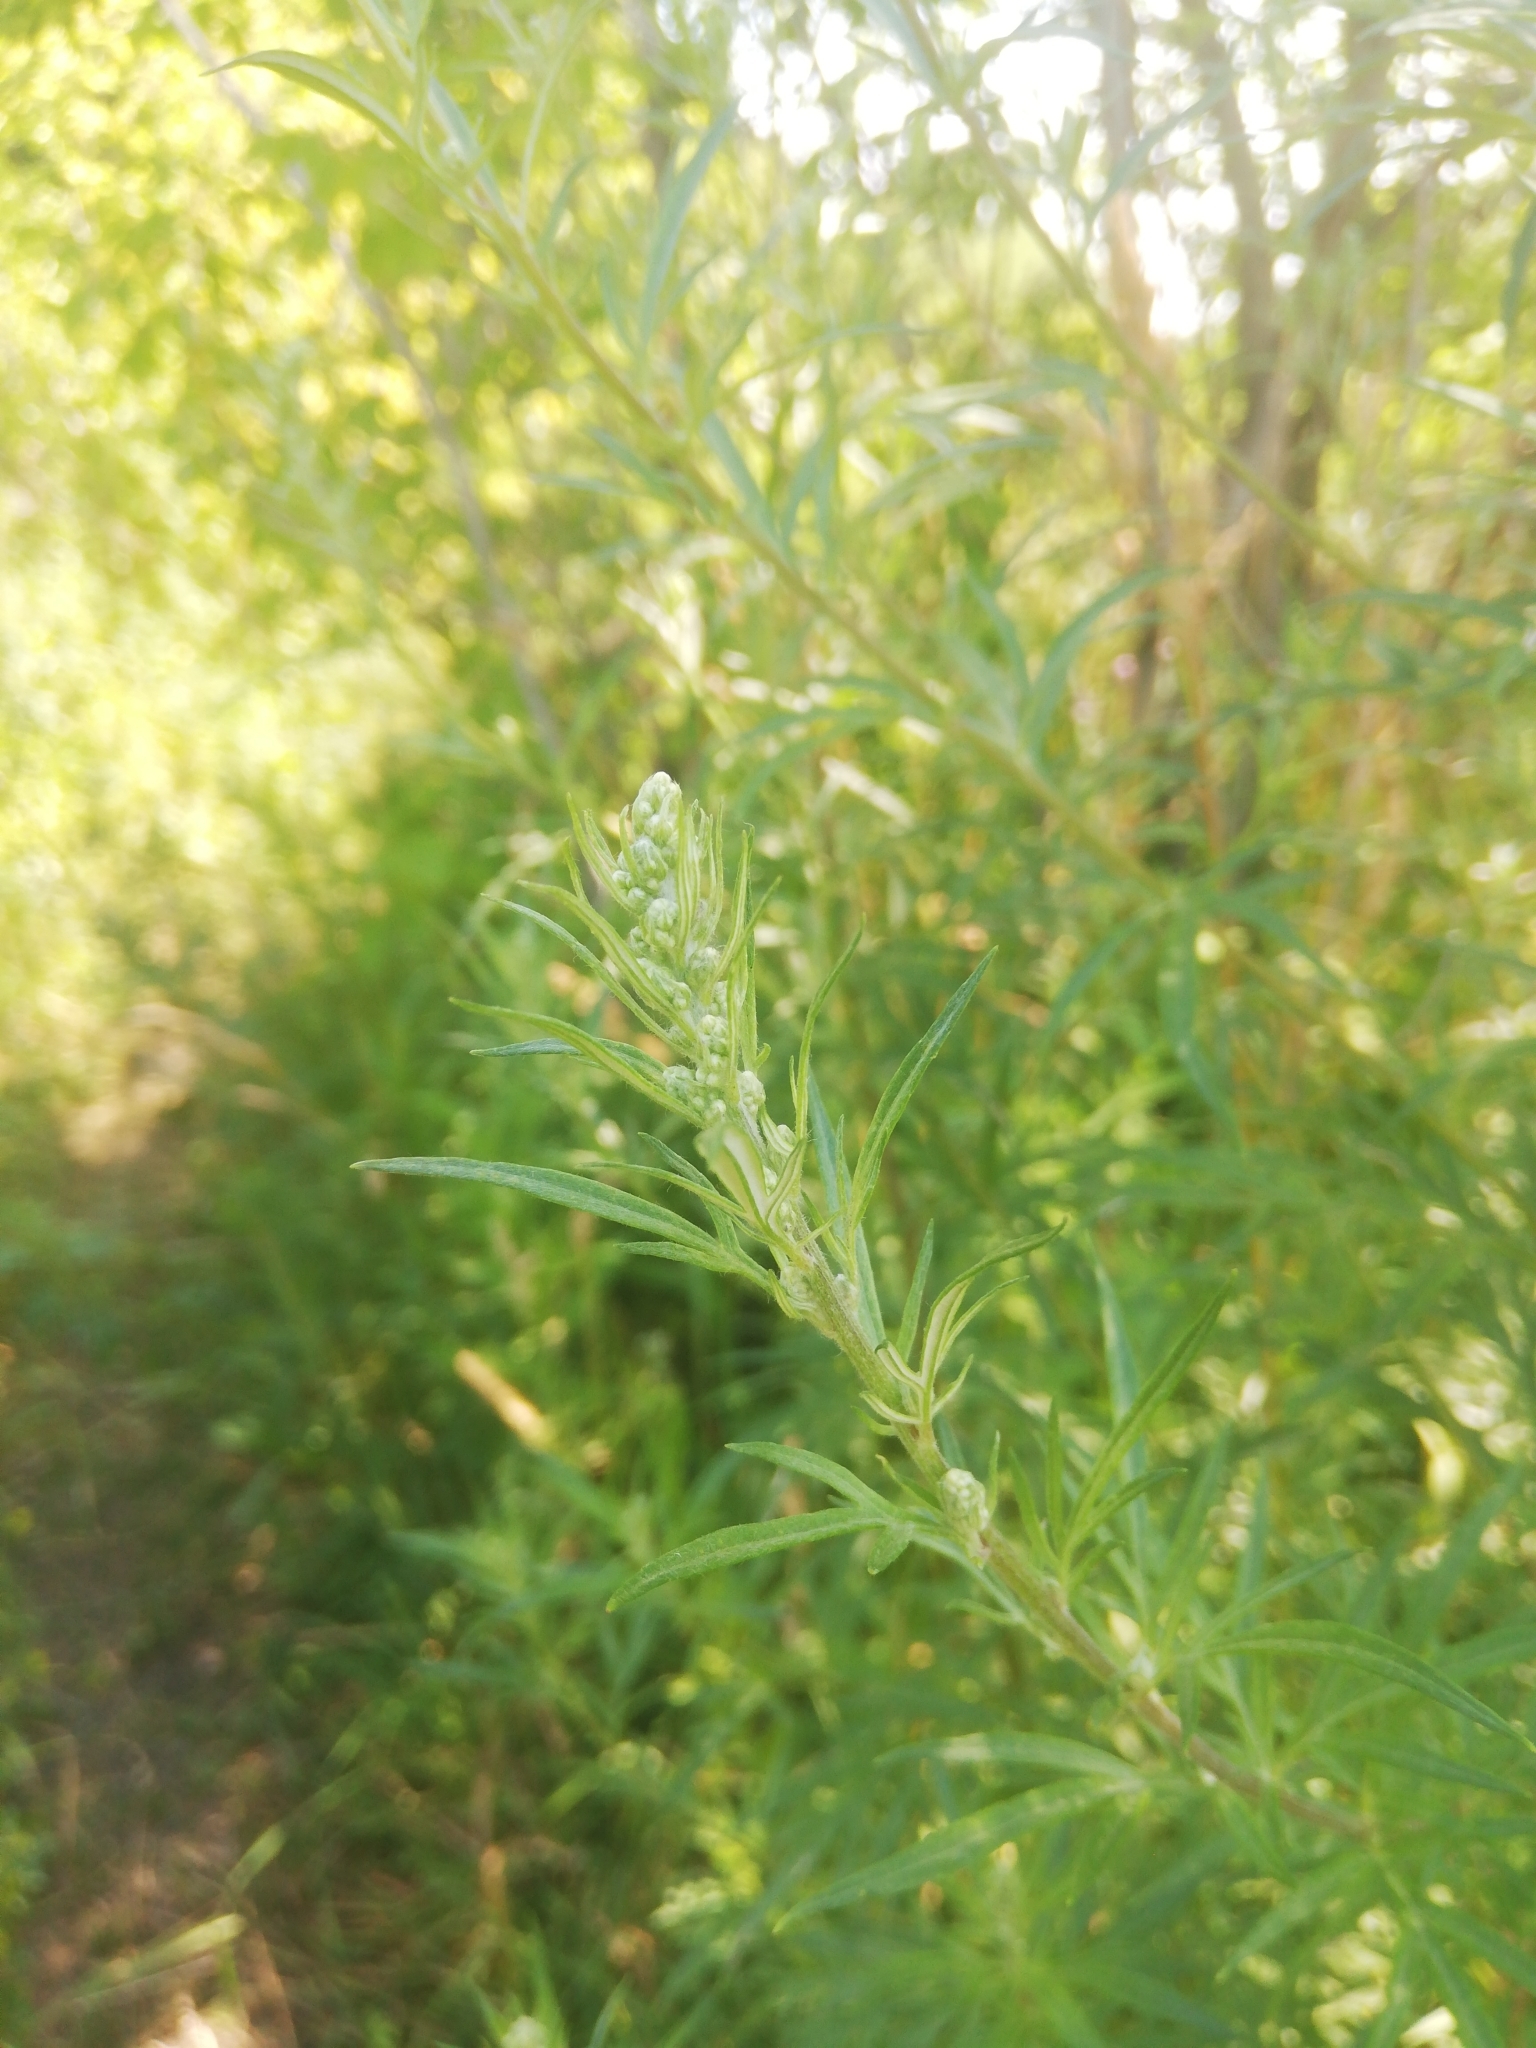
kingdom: Plantae
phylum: Tracheophyta
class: Magnoliopsida
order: Asterales
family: Asteraceae
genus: Artemisia
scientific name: Artemisia vulgaris
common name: Mugwort
